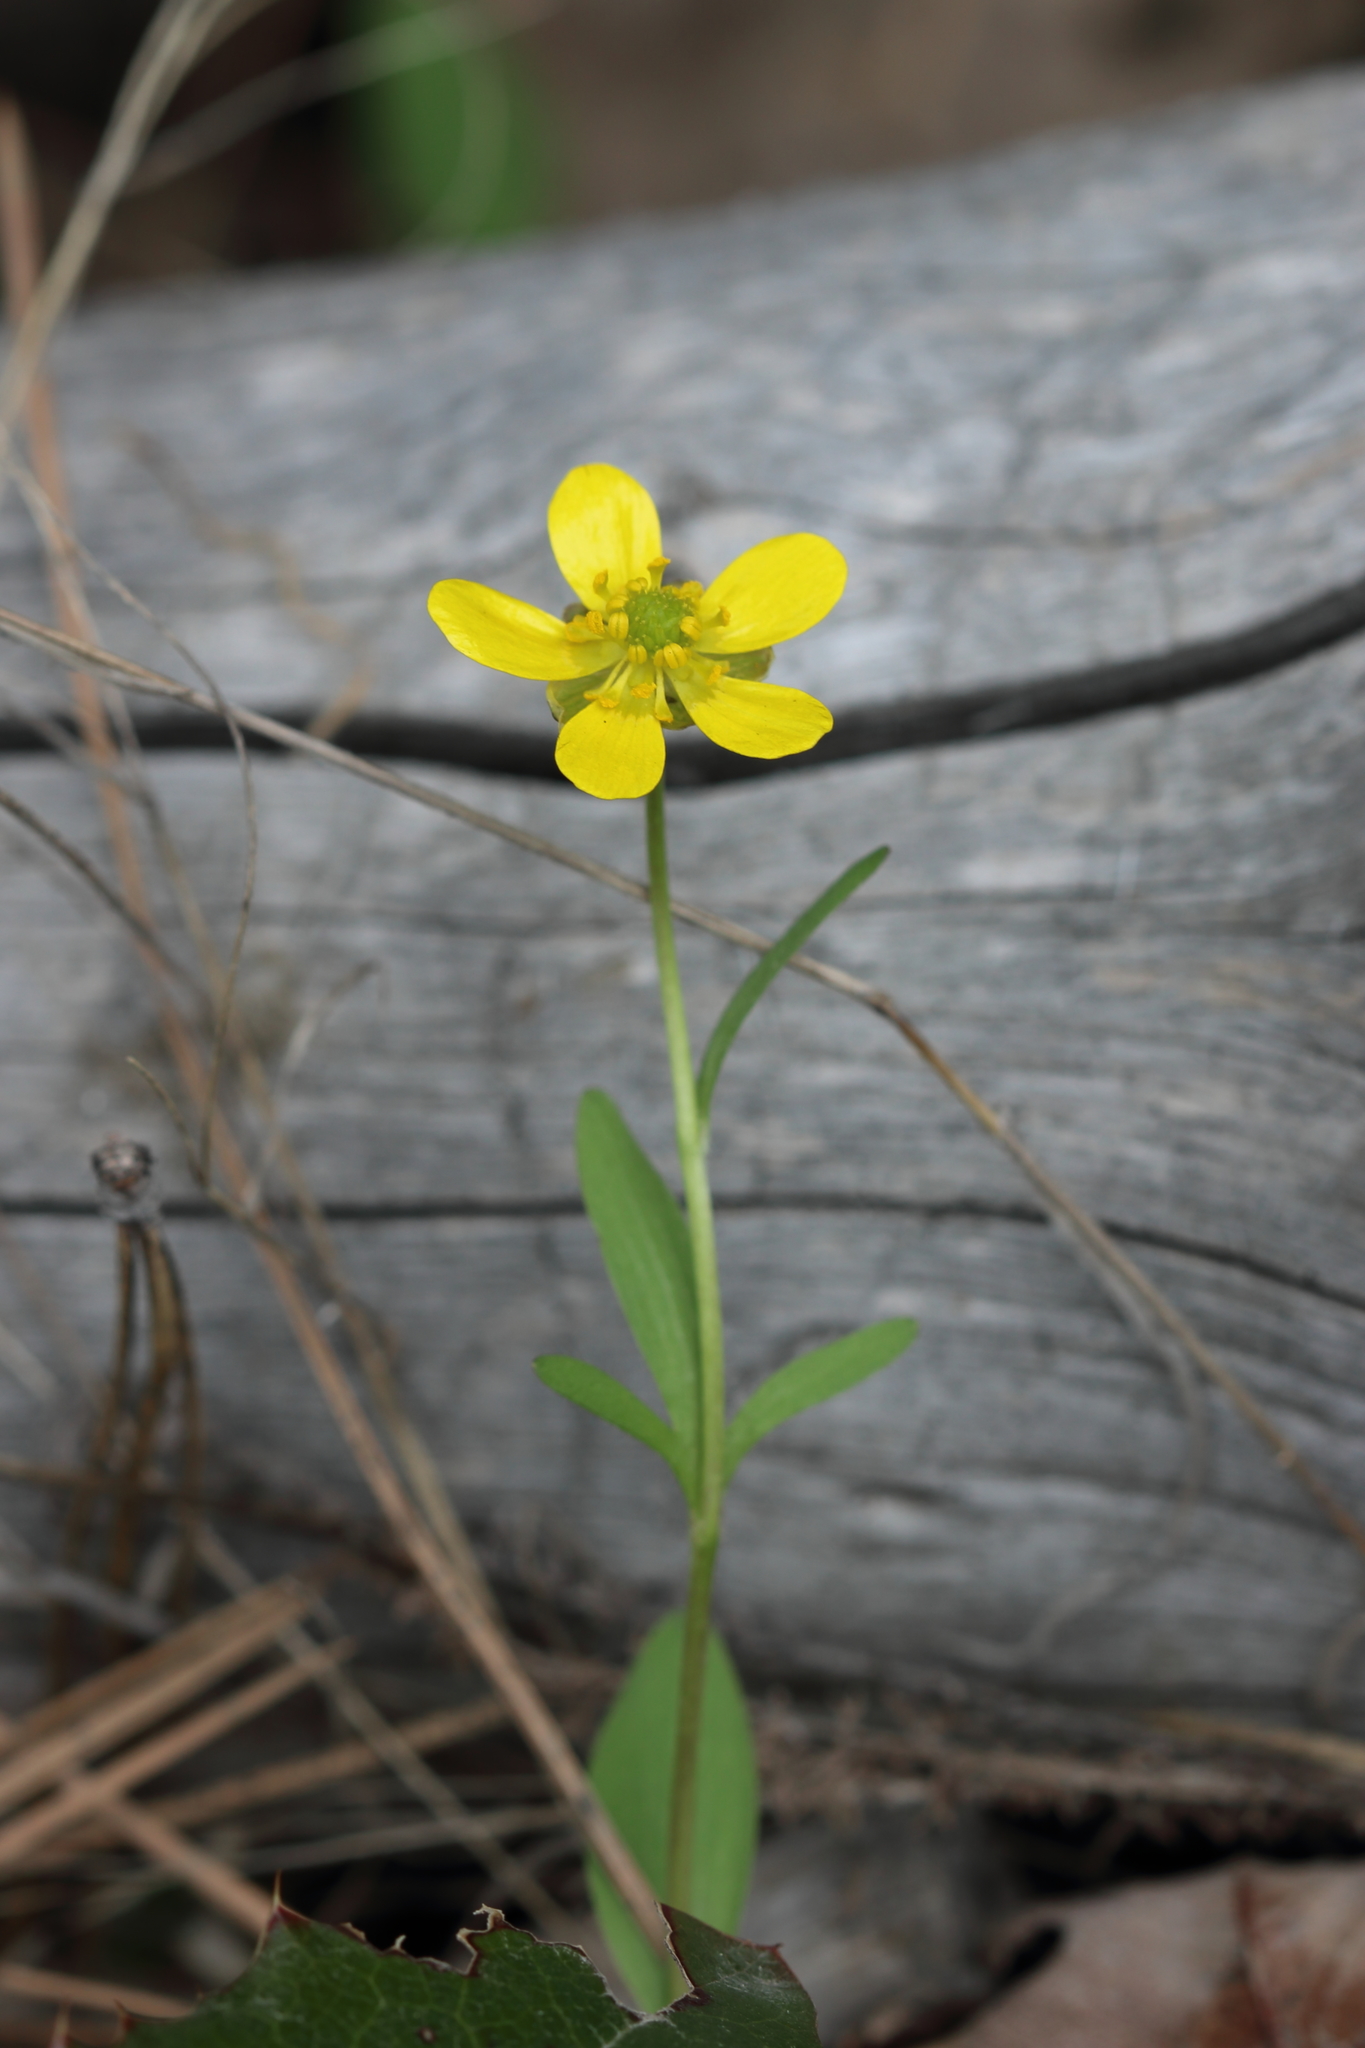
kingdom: Plantae
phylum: Tracheophyta
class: Magnoliopsida
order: Ranunculales
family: Ranunculaceae
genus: Ranunculus
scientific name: Ranunculus glaberrimus
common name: Sagebrush buttercup
